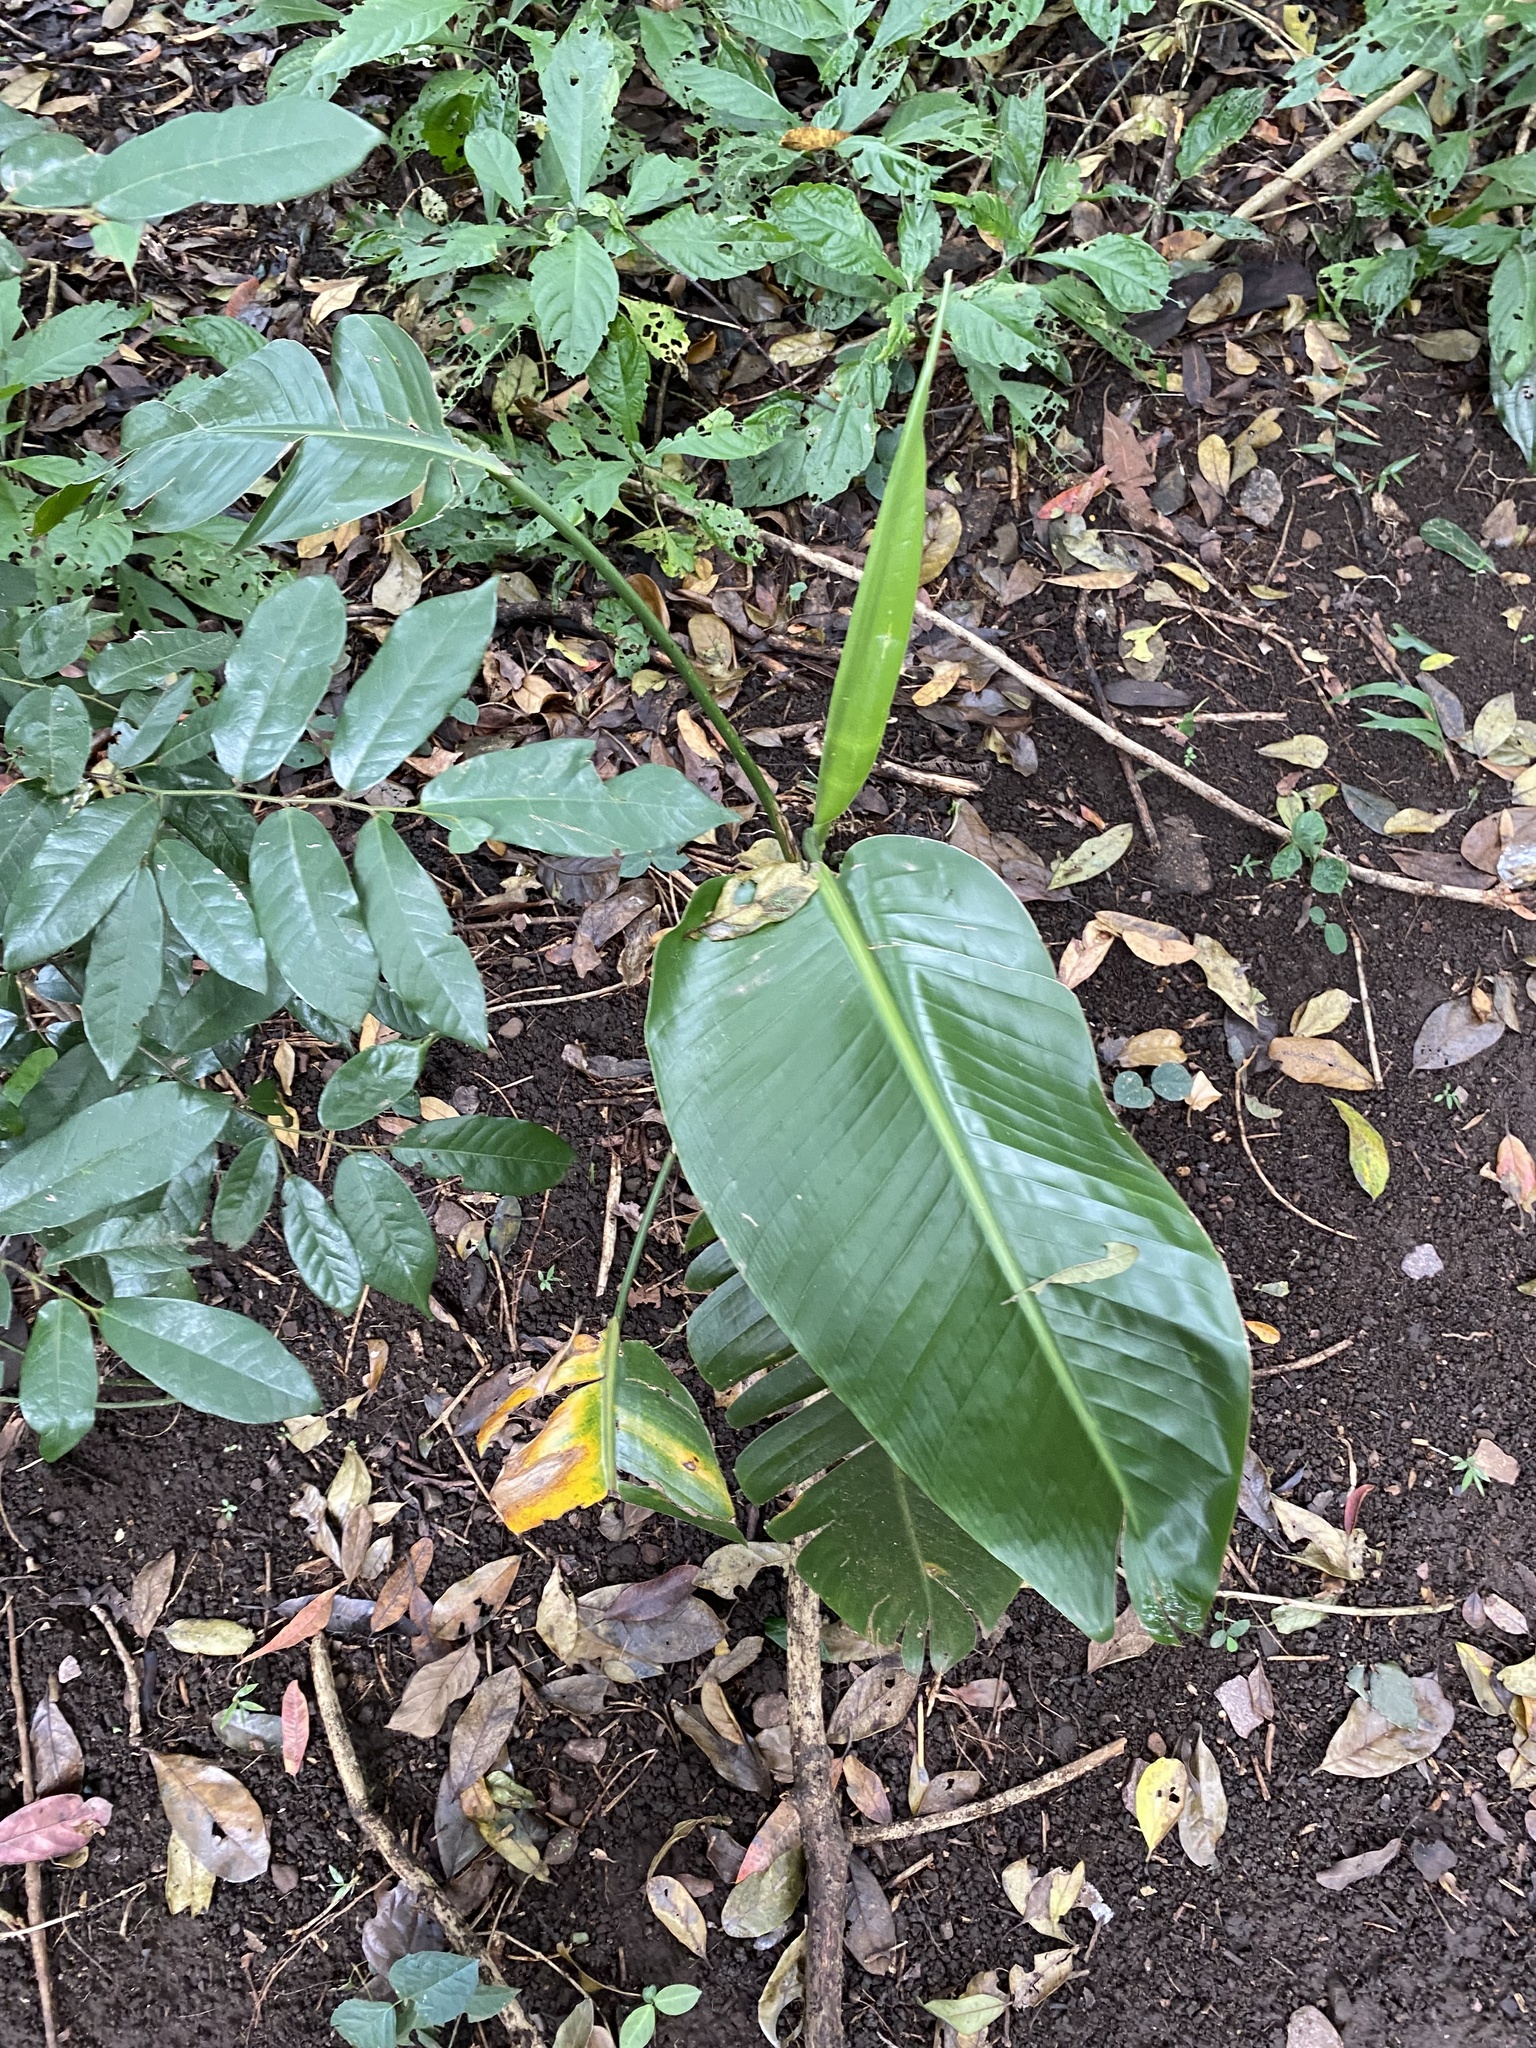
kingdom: Plantae
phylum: Tracheophyta
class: Liliopsida
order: Zingiberales
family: Strelitziaceae
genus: Strelitzia
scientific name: Strelitzia nicolai
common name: Bird-of-paradise tree
